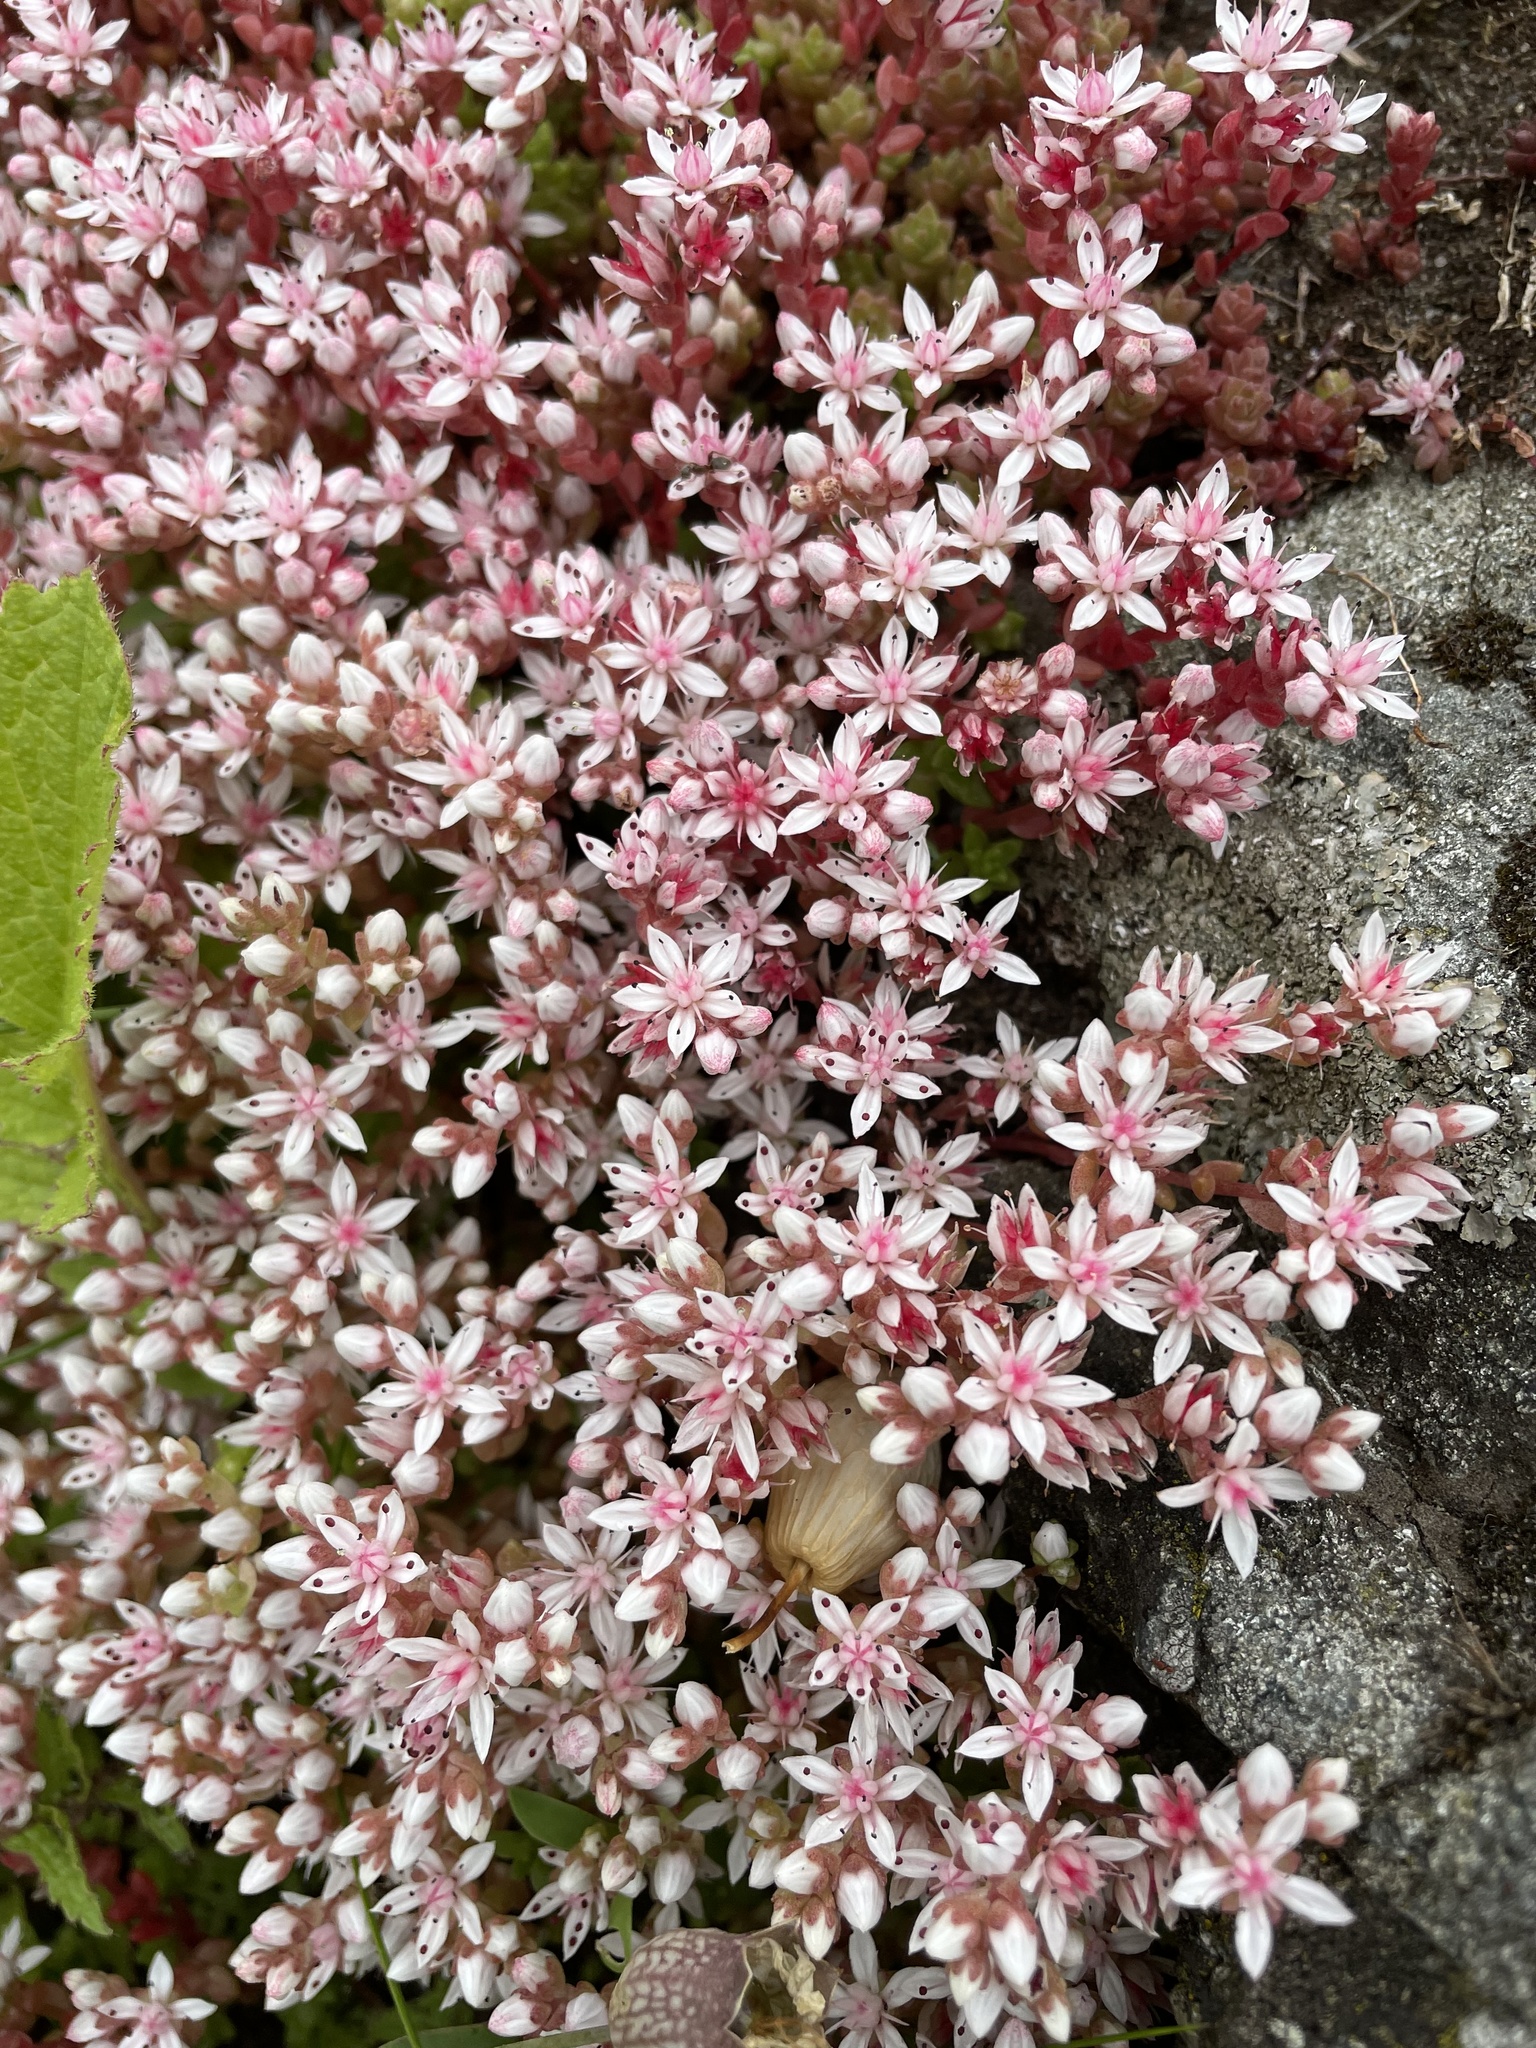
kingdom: Plantae
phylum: Tracheophyta
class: Magnoliopsida
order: Saxifragales
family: Crassulaceae
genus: Sedum
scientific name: Sedum anglicum
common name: English stonecrop
